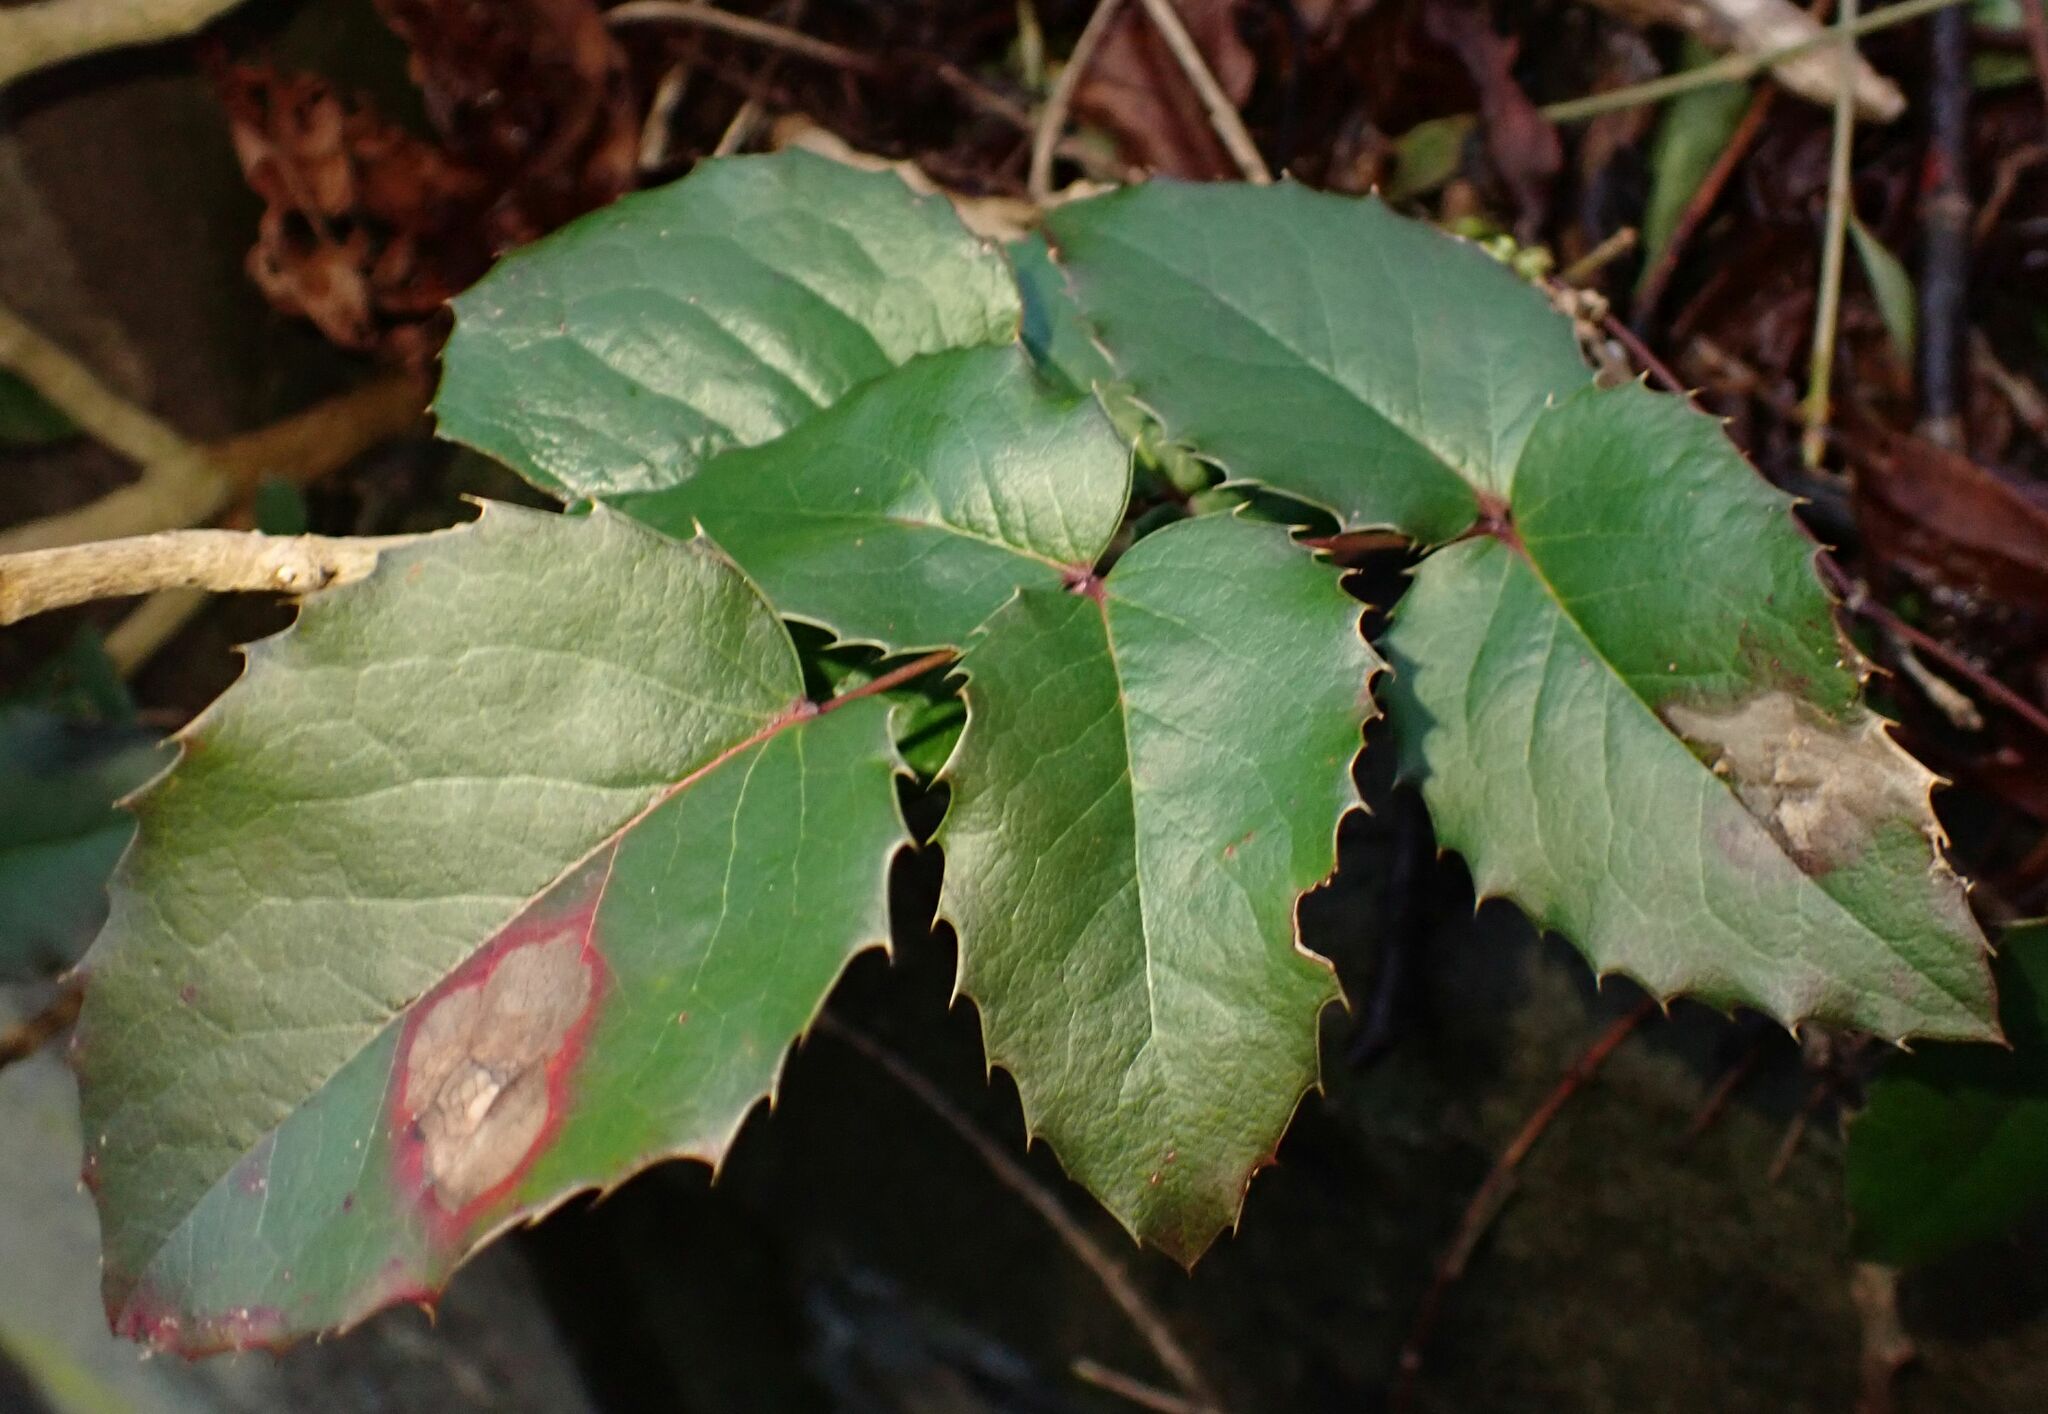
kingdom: Plantae
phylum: Tracheophyta
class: Magnoliopsida
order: Ranunculales
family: Berberidaceae
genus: Mahonia
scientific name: Mahonia aquifolium
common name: Oregon-grape
